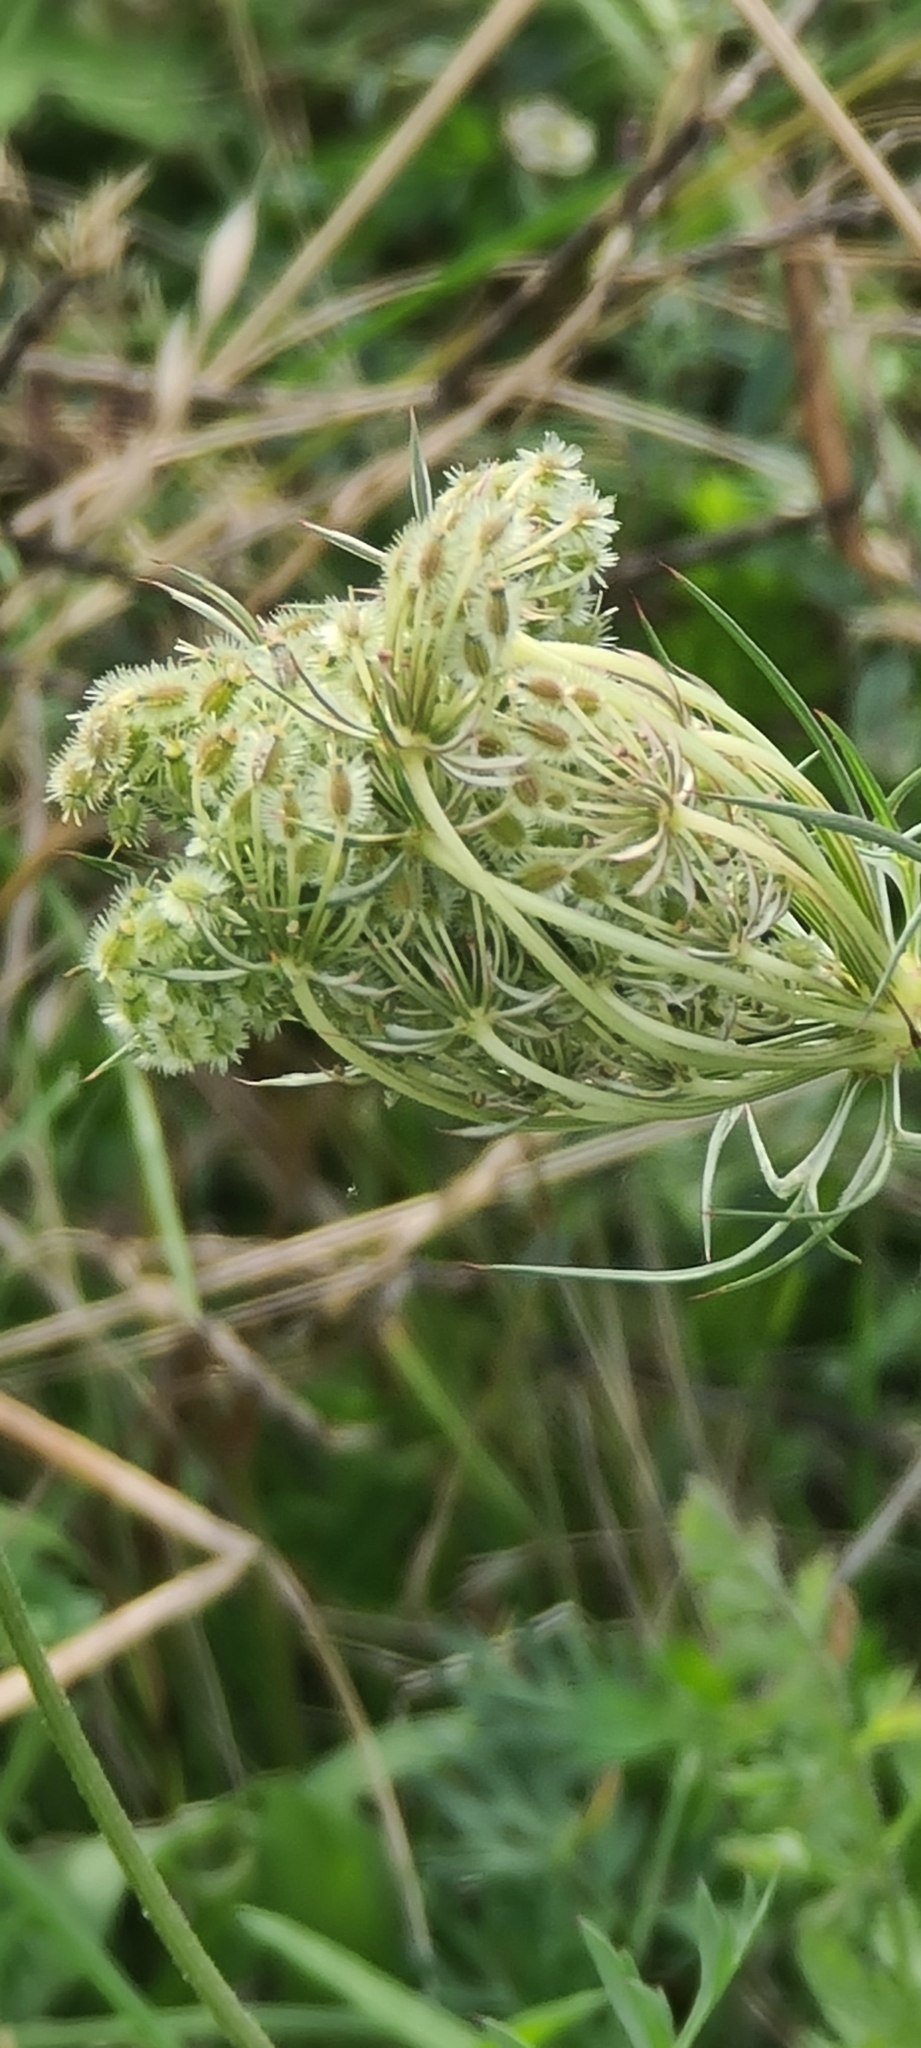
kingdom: Plantae
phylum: Tracheophyta
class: Magnoliopsida
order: Apiales
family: Apiaceae
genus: Daucus
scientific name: Daucus carota
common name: Wild carrot
